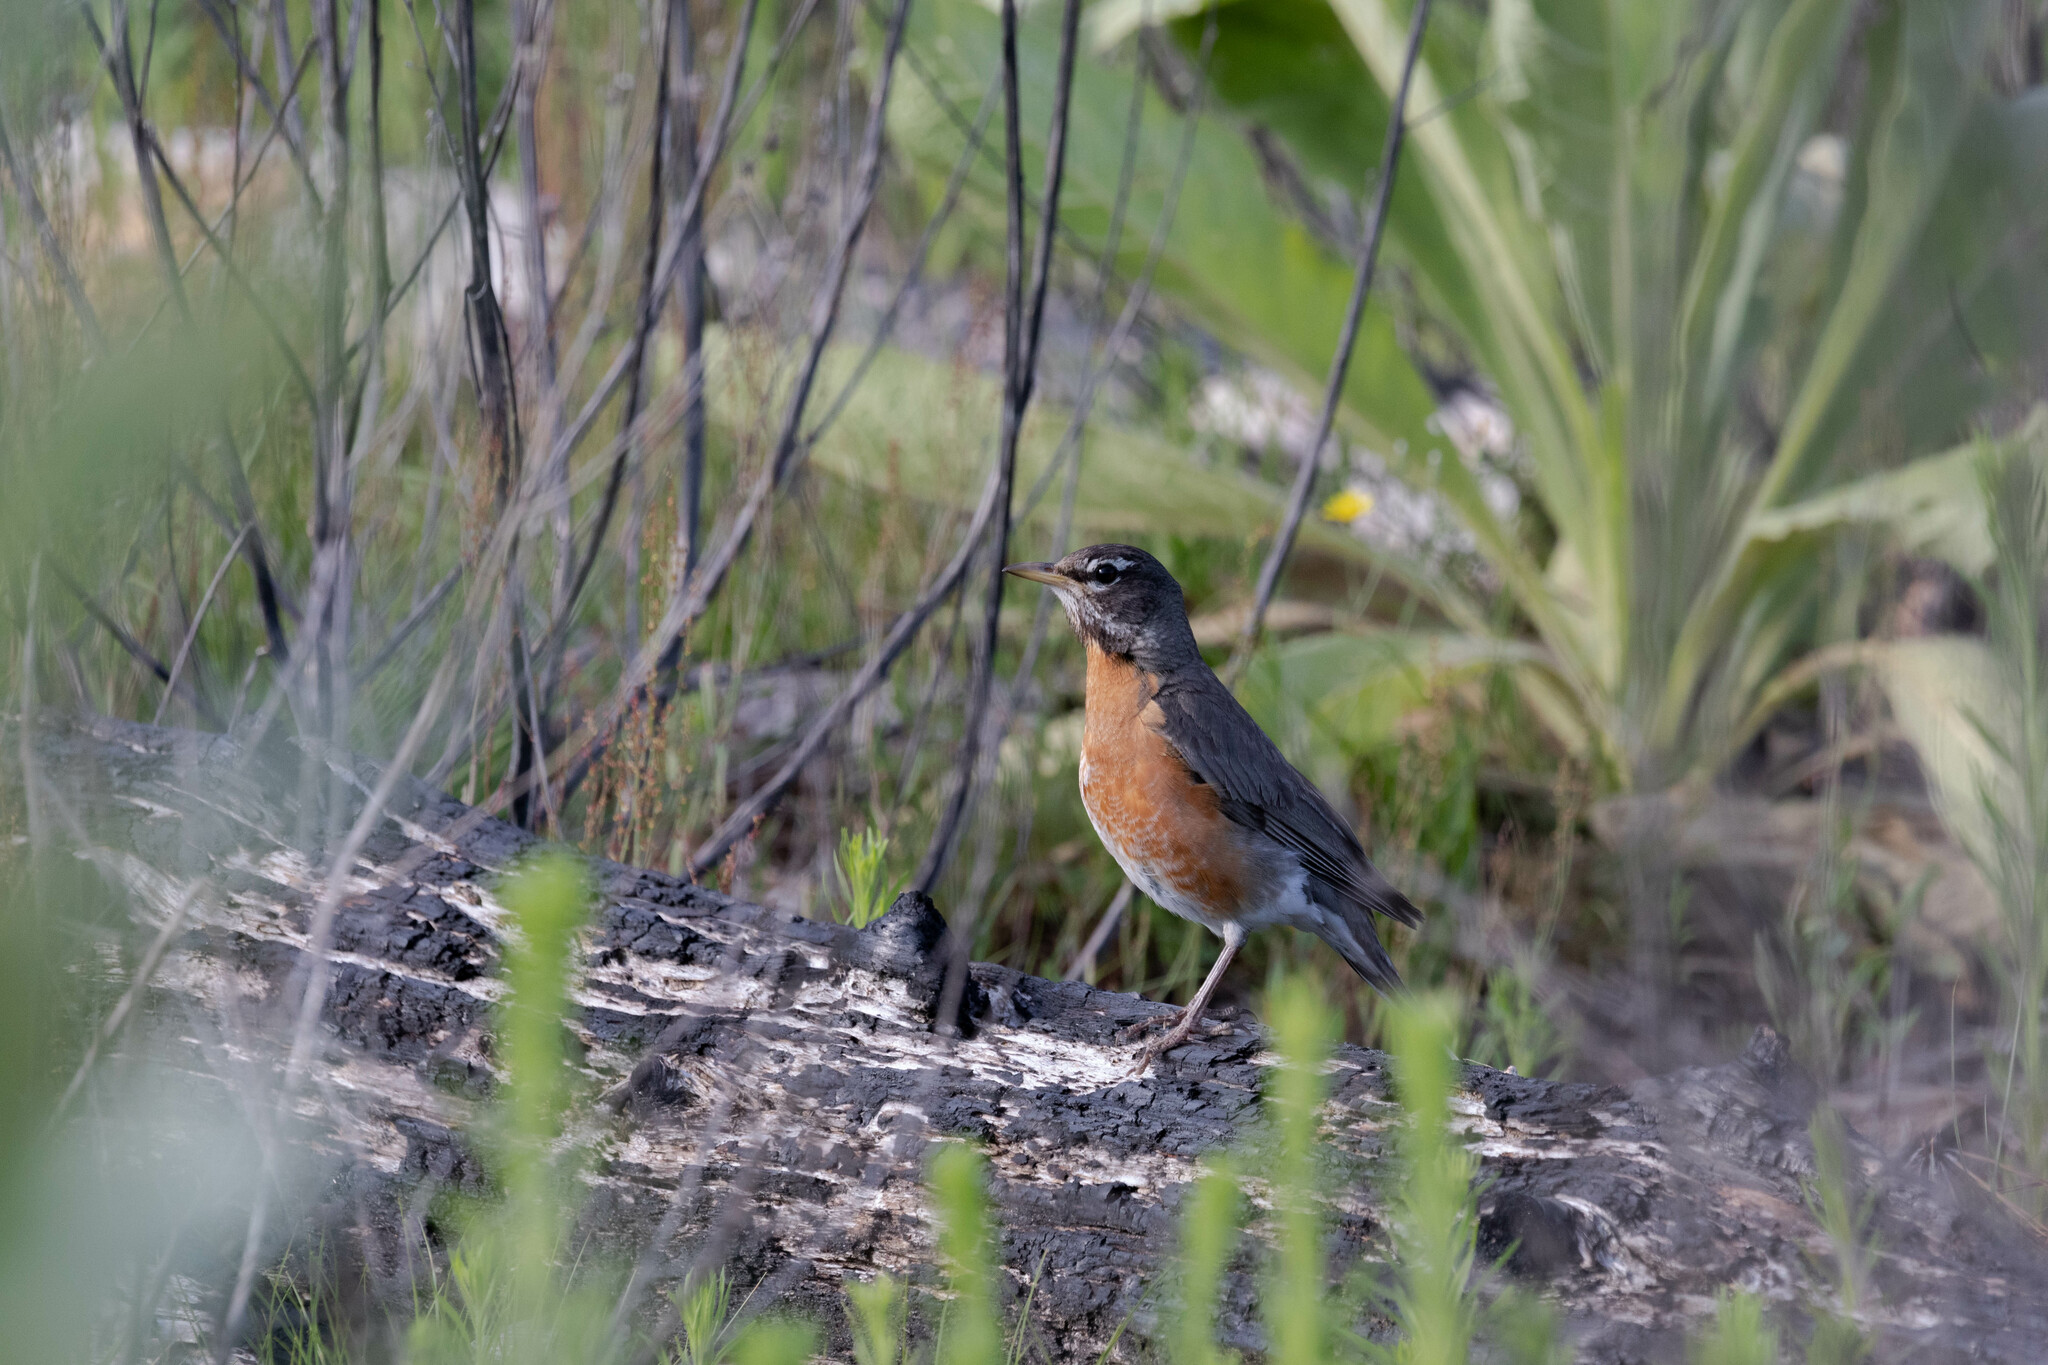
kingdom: Animalia
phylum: Chordata
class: Aves
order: Passeriformes
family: Turdidae
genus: Turdus
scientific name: Turdus migratorius
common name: American robin
